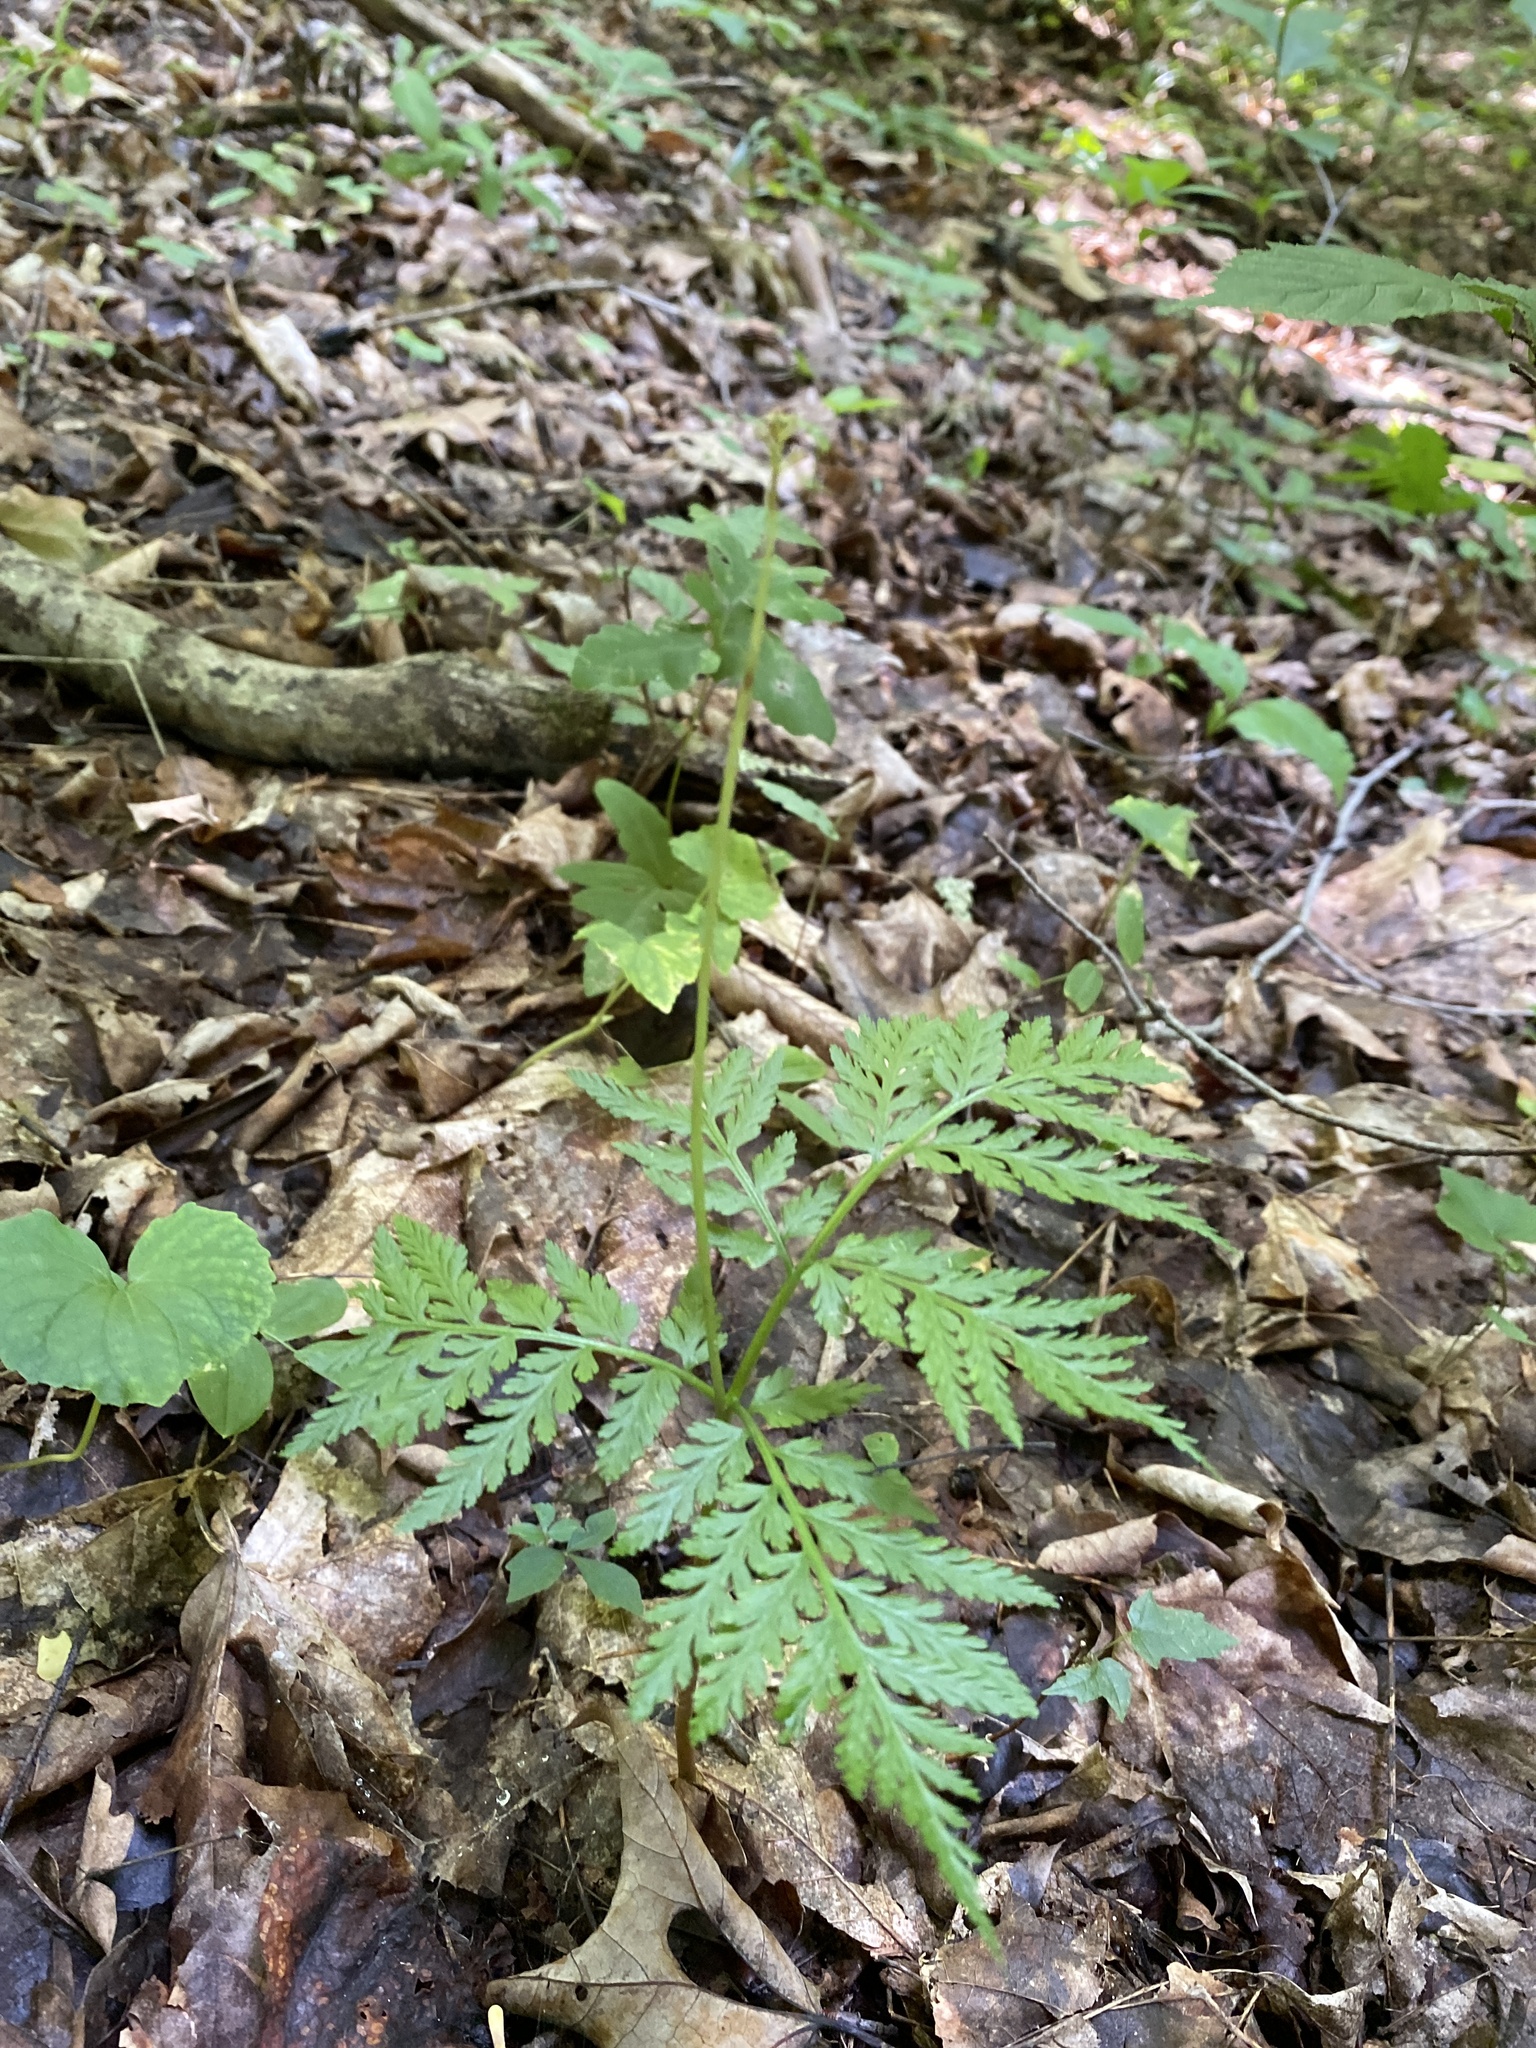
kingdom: Plantae
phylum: Tracheophyta
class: Polypodiopsida
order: Ophioglossales
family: Ophioglossaceae
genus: Botrypus
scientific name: Botrypus virginianus
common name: Common grapefern
